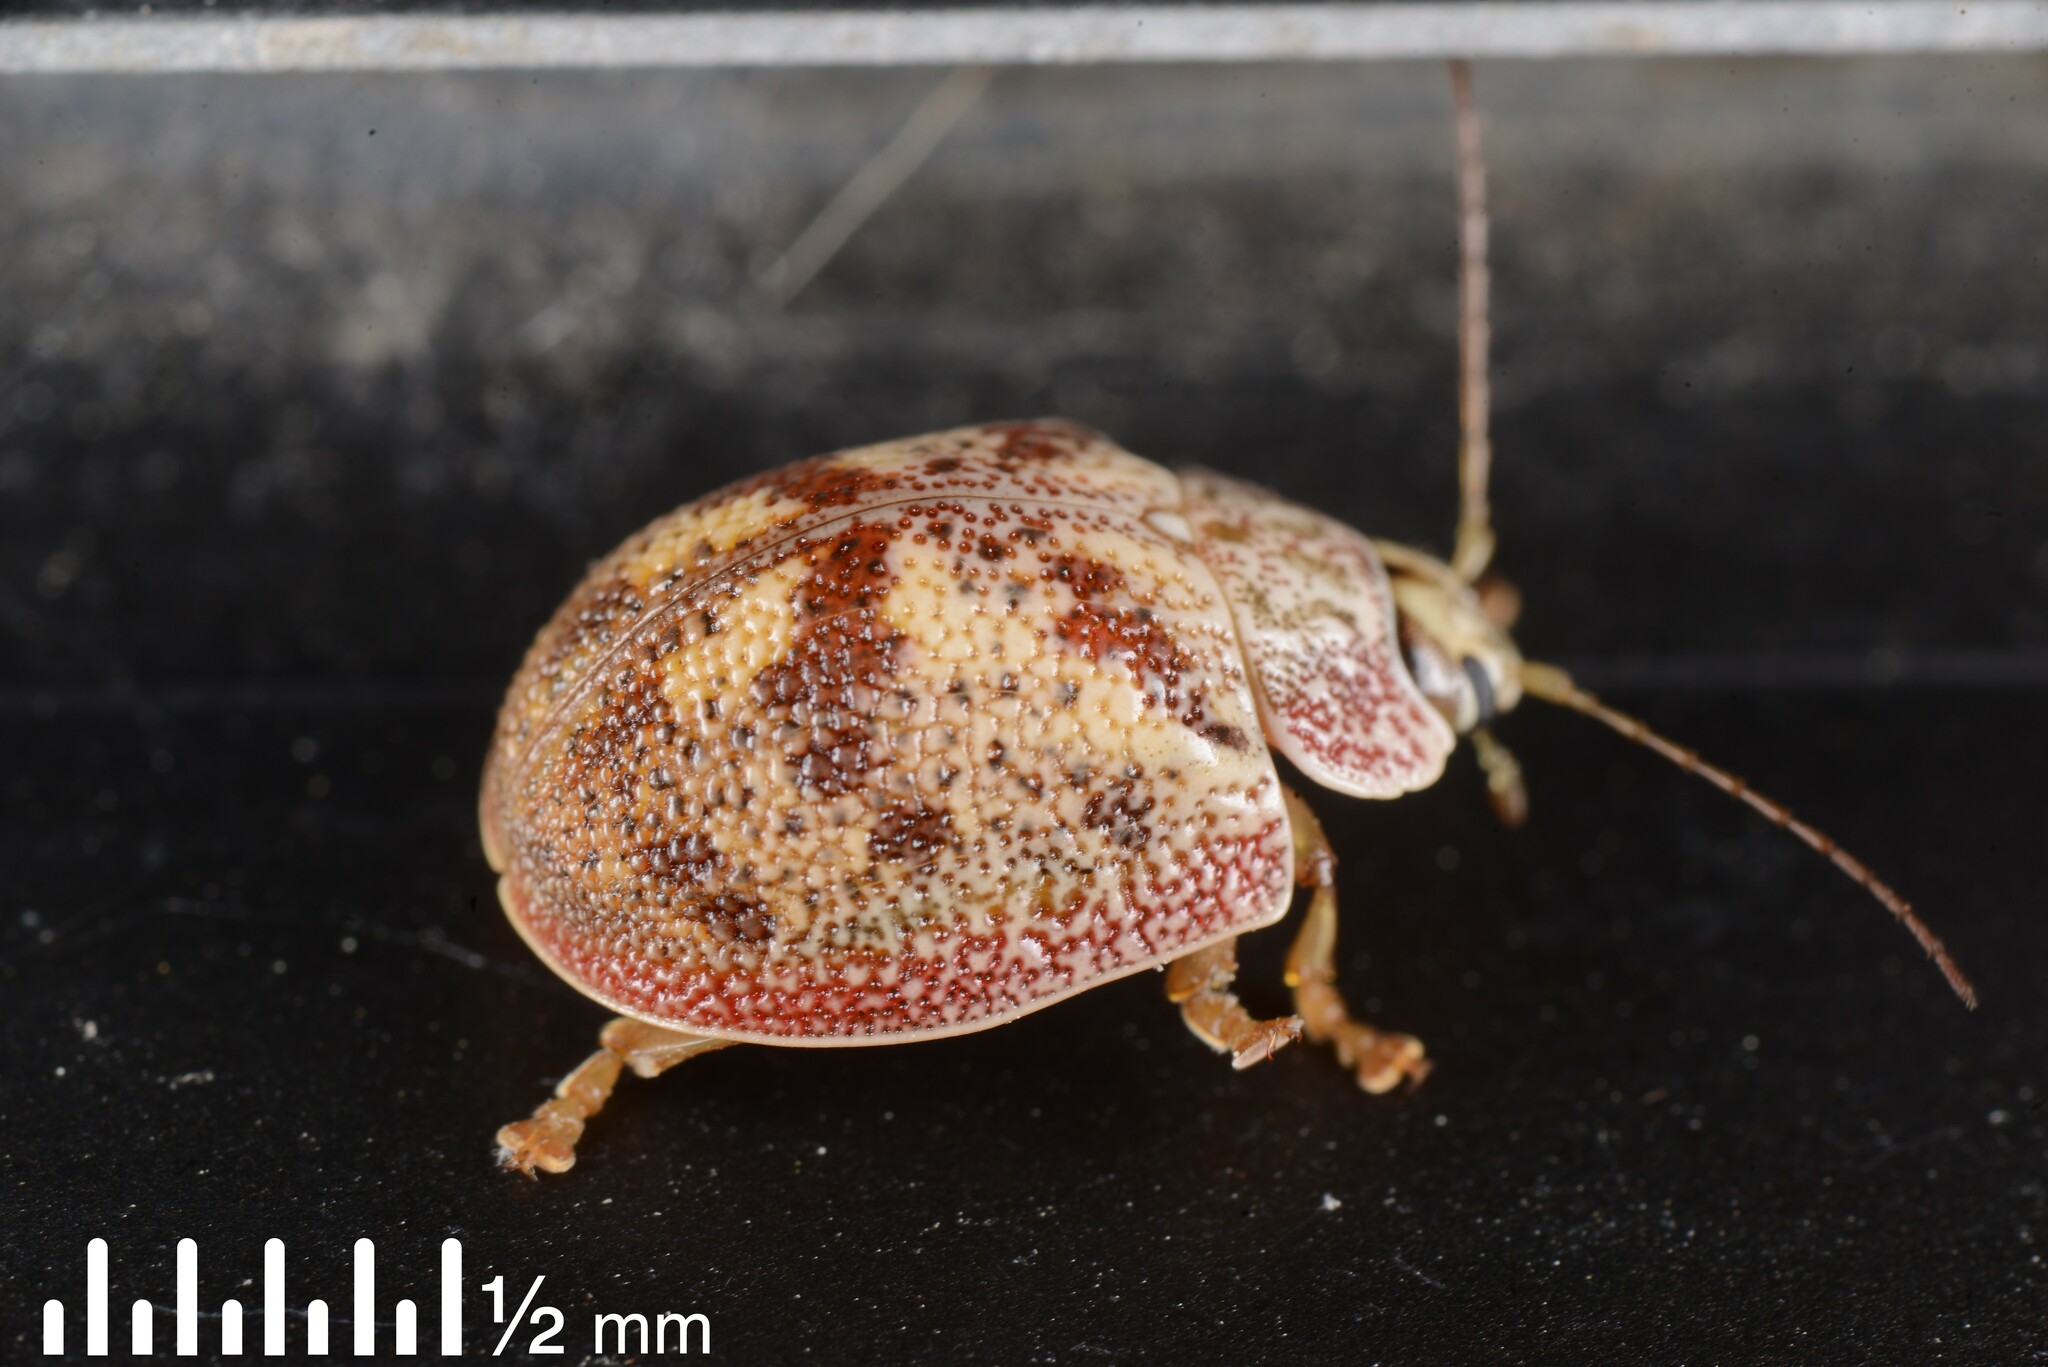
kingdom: Animalia
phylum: Arthropoda
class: Insecta
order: Coleoptera
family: Chrysomelidae
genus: Paropsis
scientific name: Paropsis charybdis
